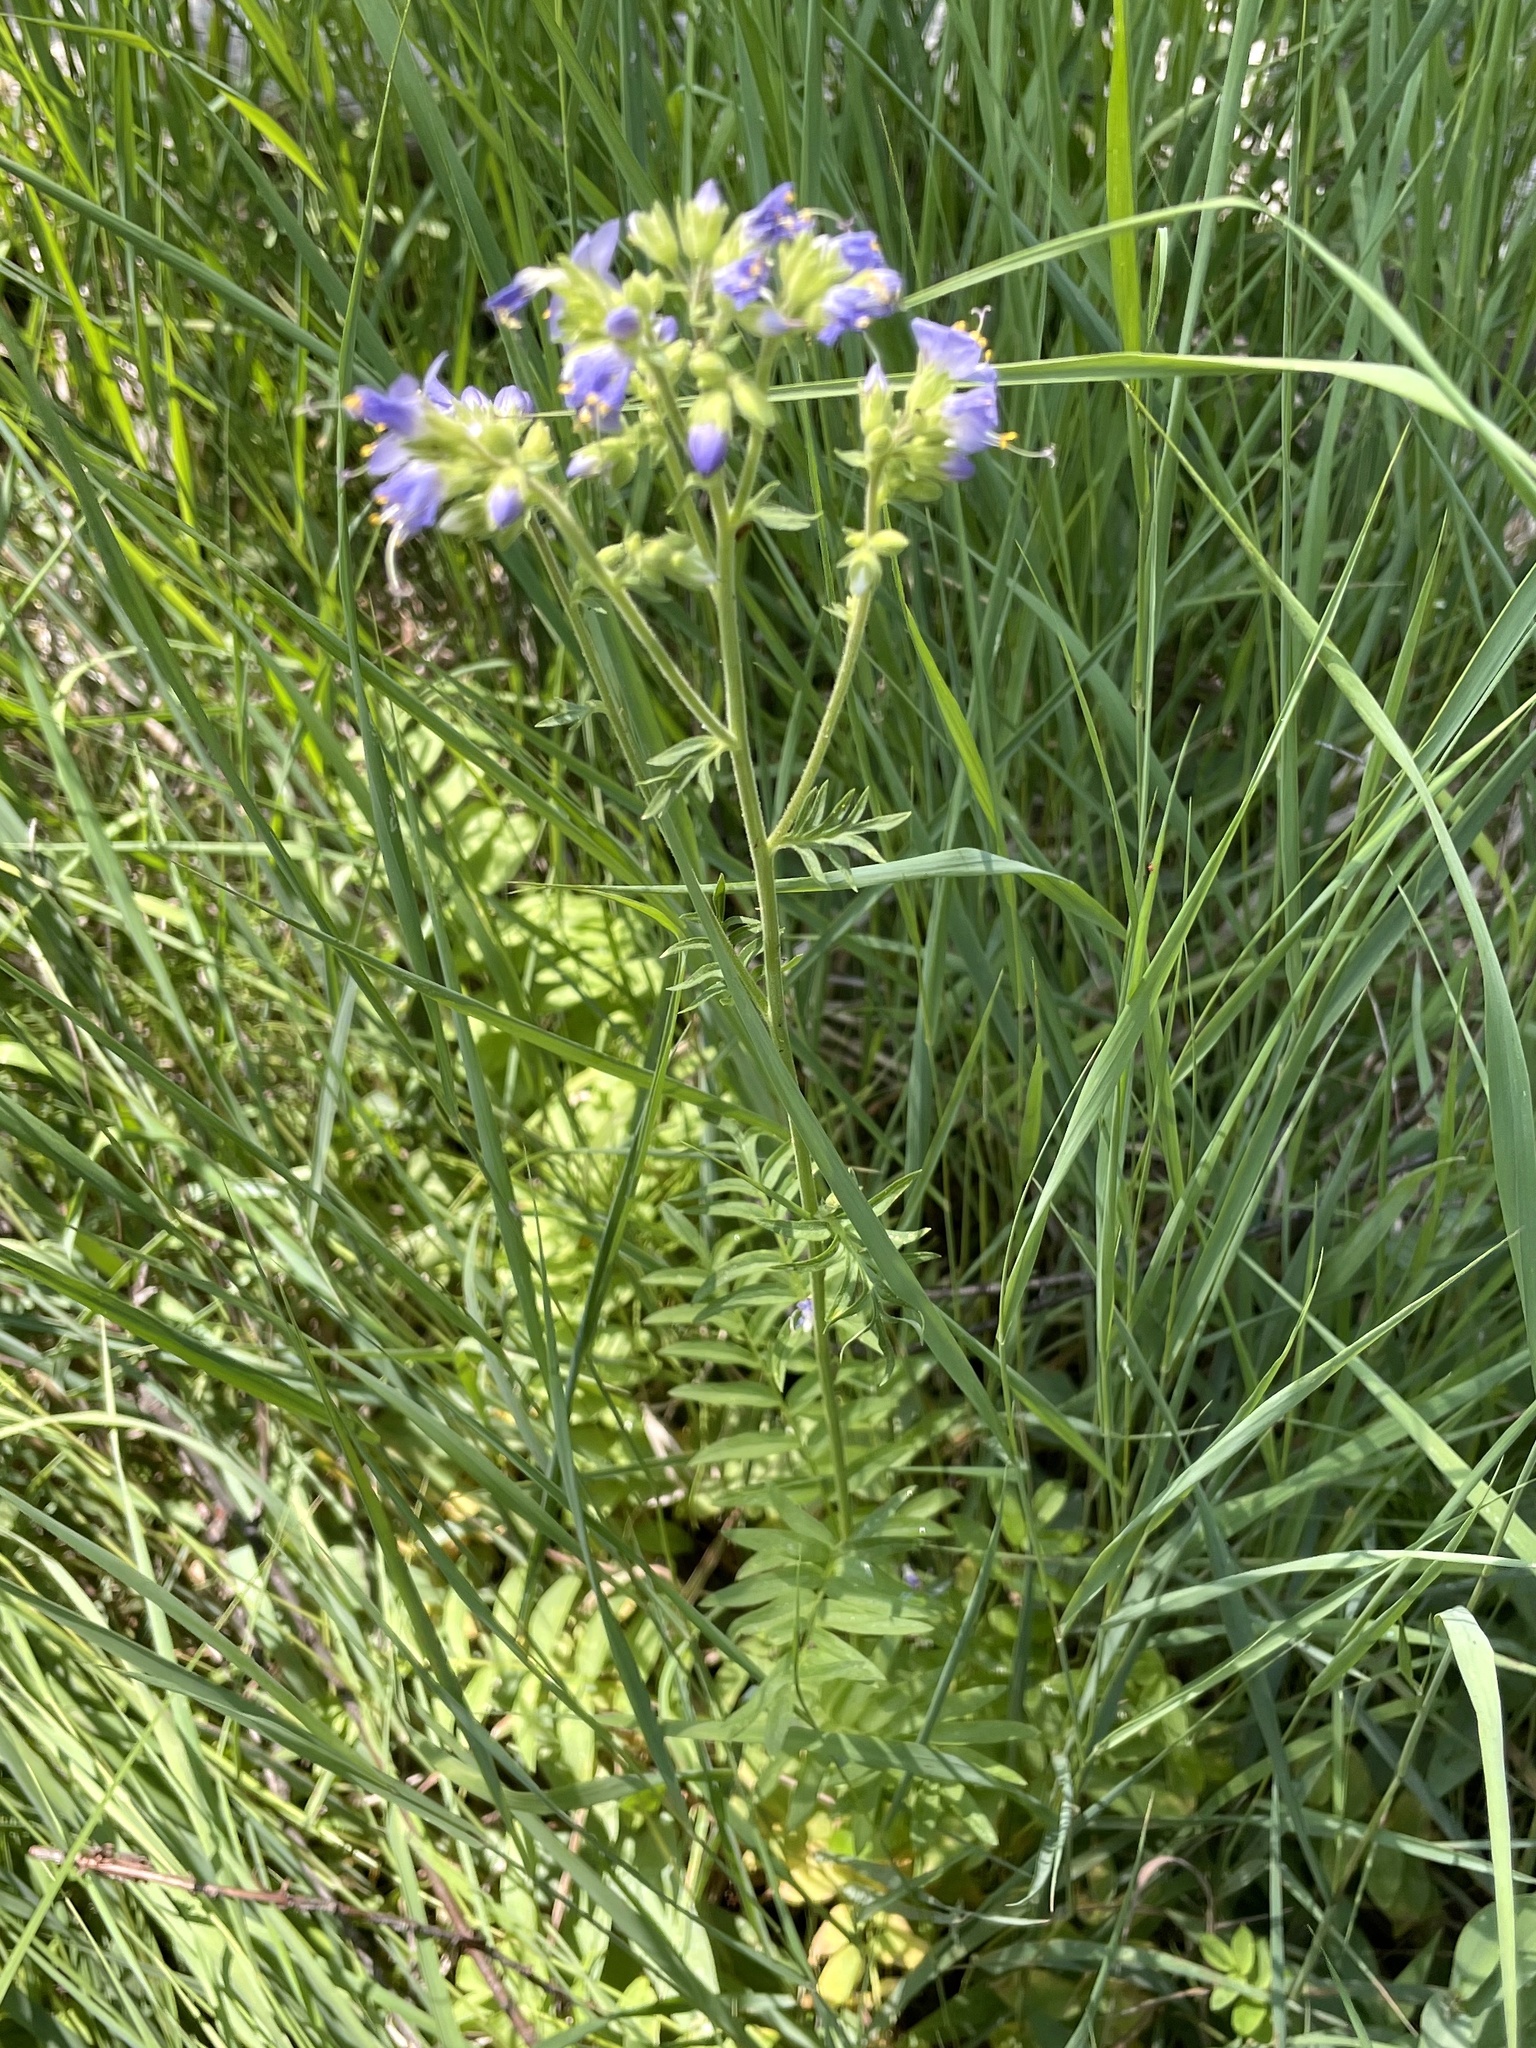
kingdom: Plantae
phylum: Tracheophyta
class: Magnoliopsida
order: Ericales
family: Polemoniaceae
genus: Polemonium
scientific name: Polemonium occidentale
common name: Western jacob's-ladder
